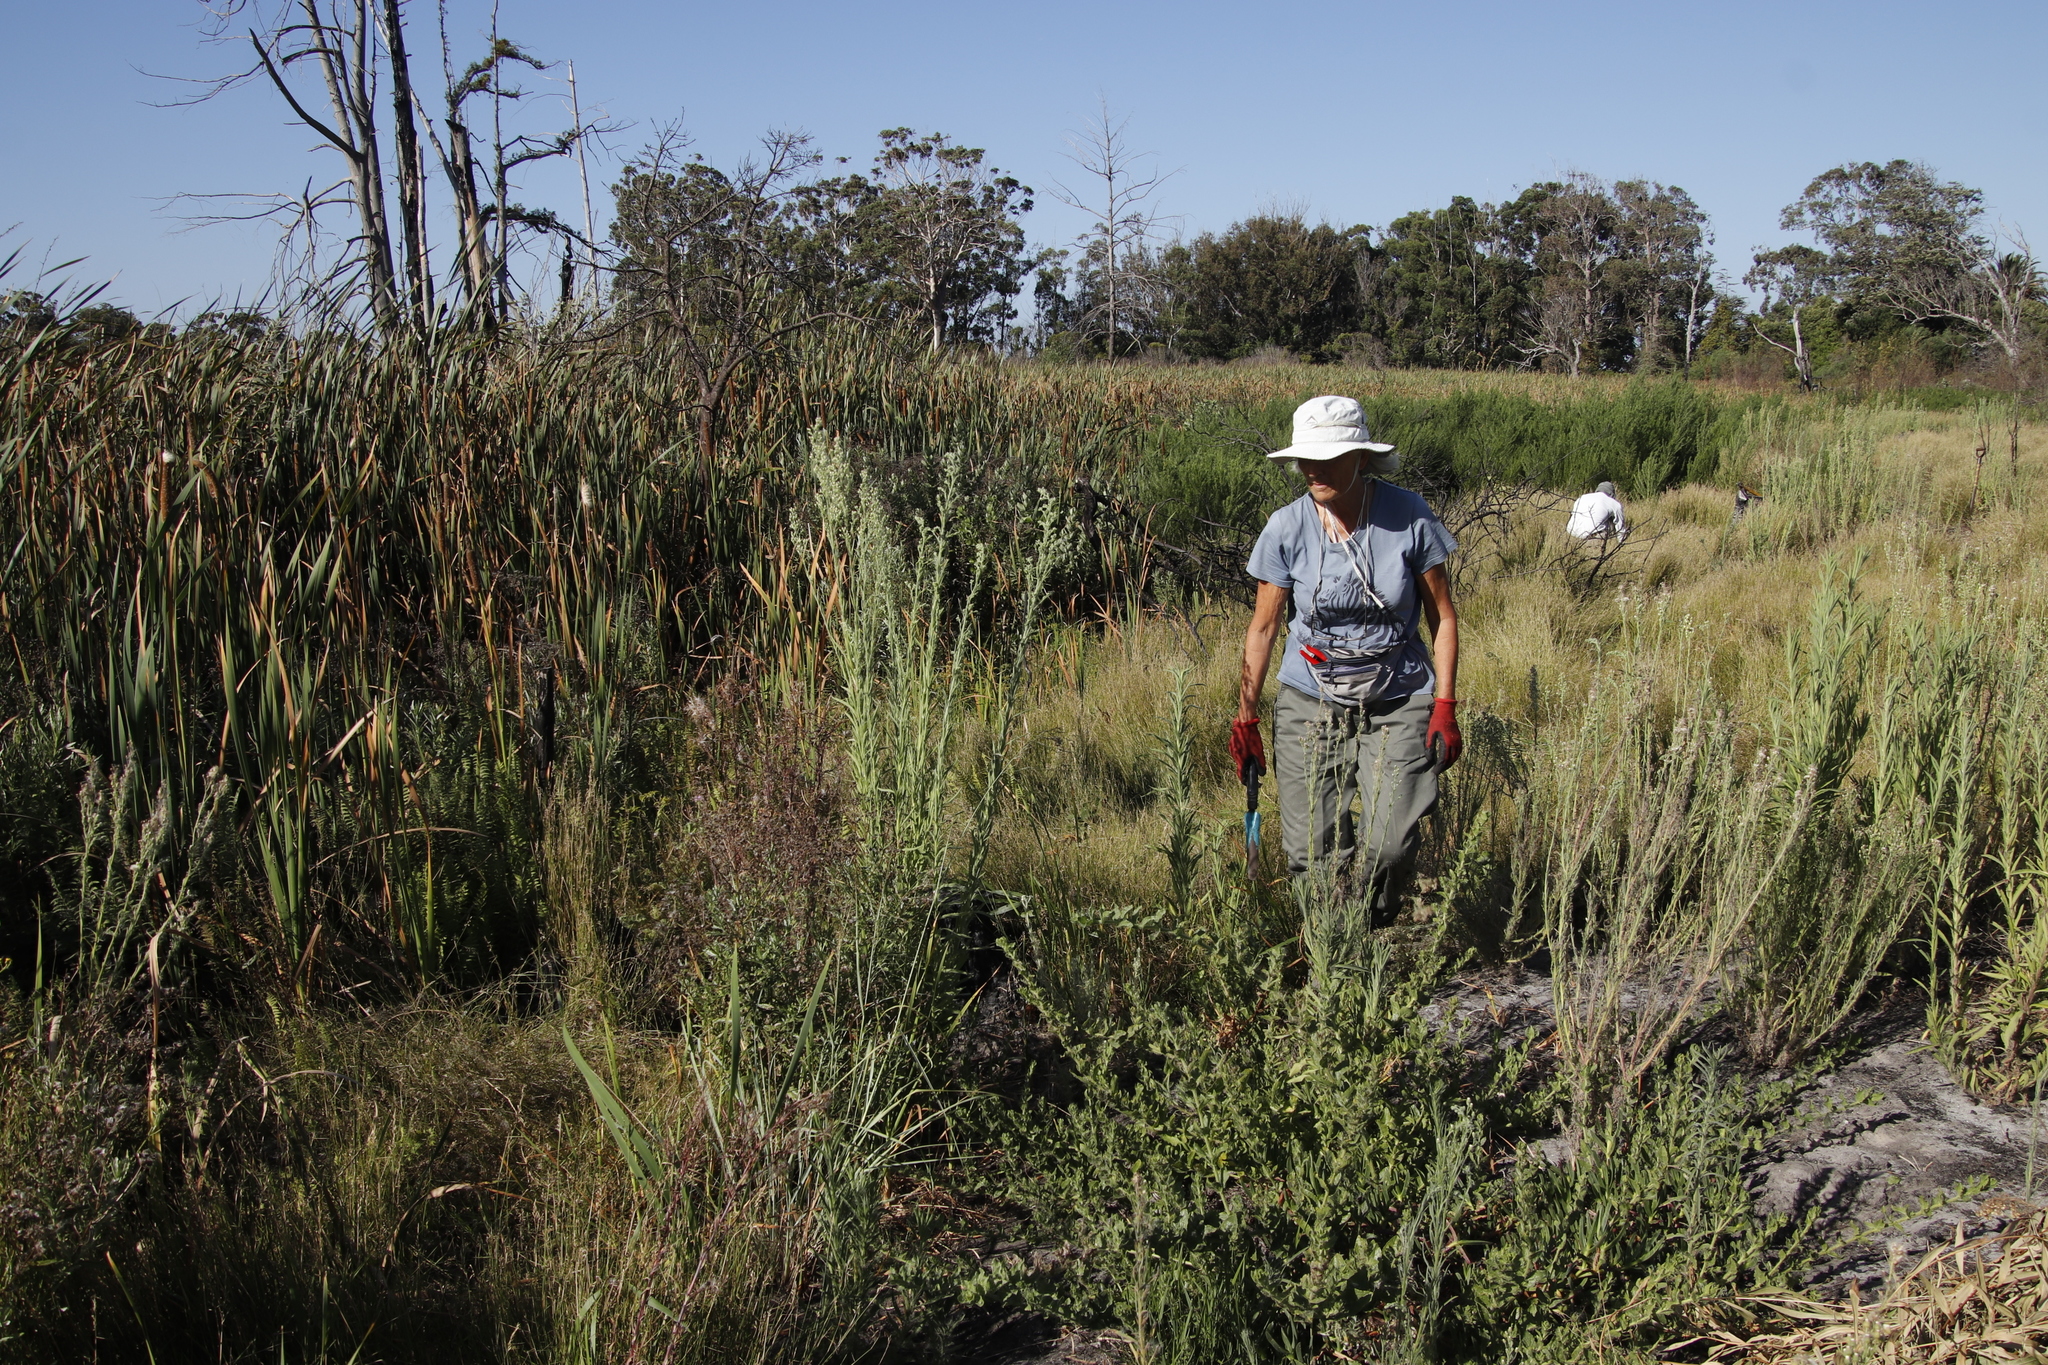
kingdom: Plantae
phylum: Tracheophyta
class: Magnoliopsida
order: Lamiales
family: Scrophulariaceae
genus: Oftia
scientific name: Oftia africana
